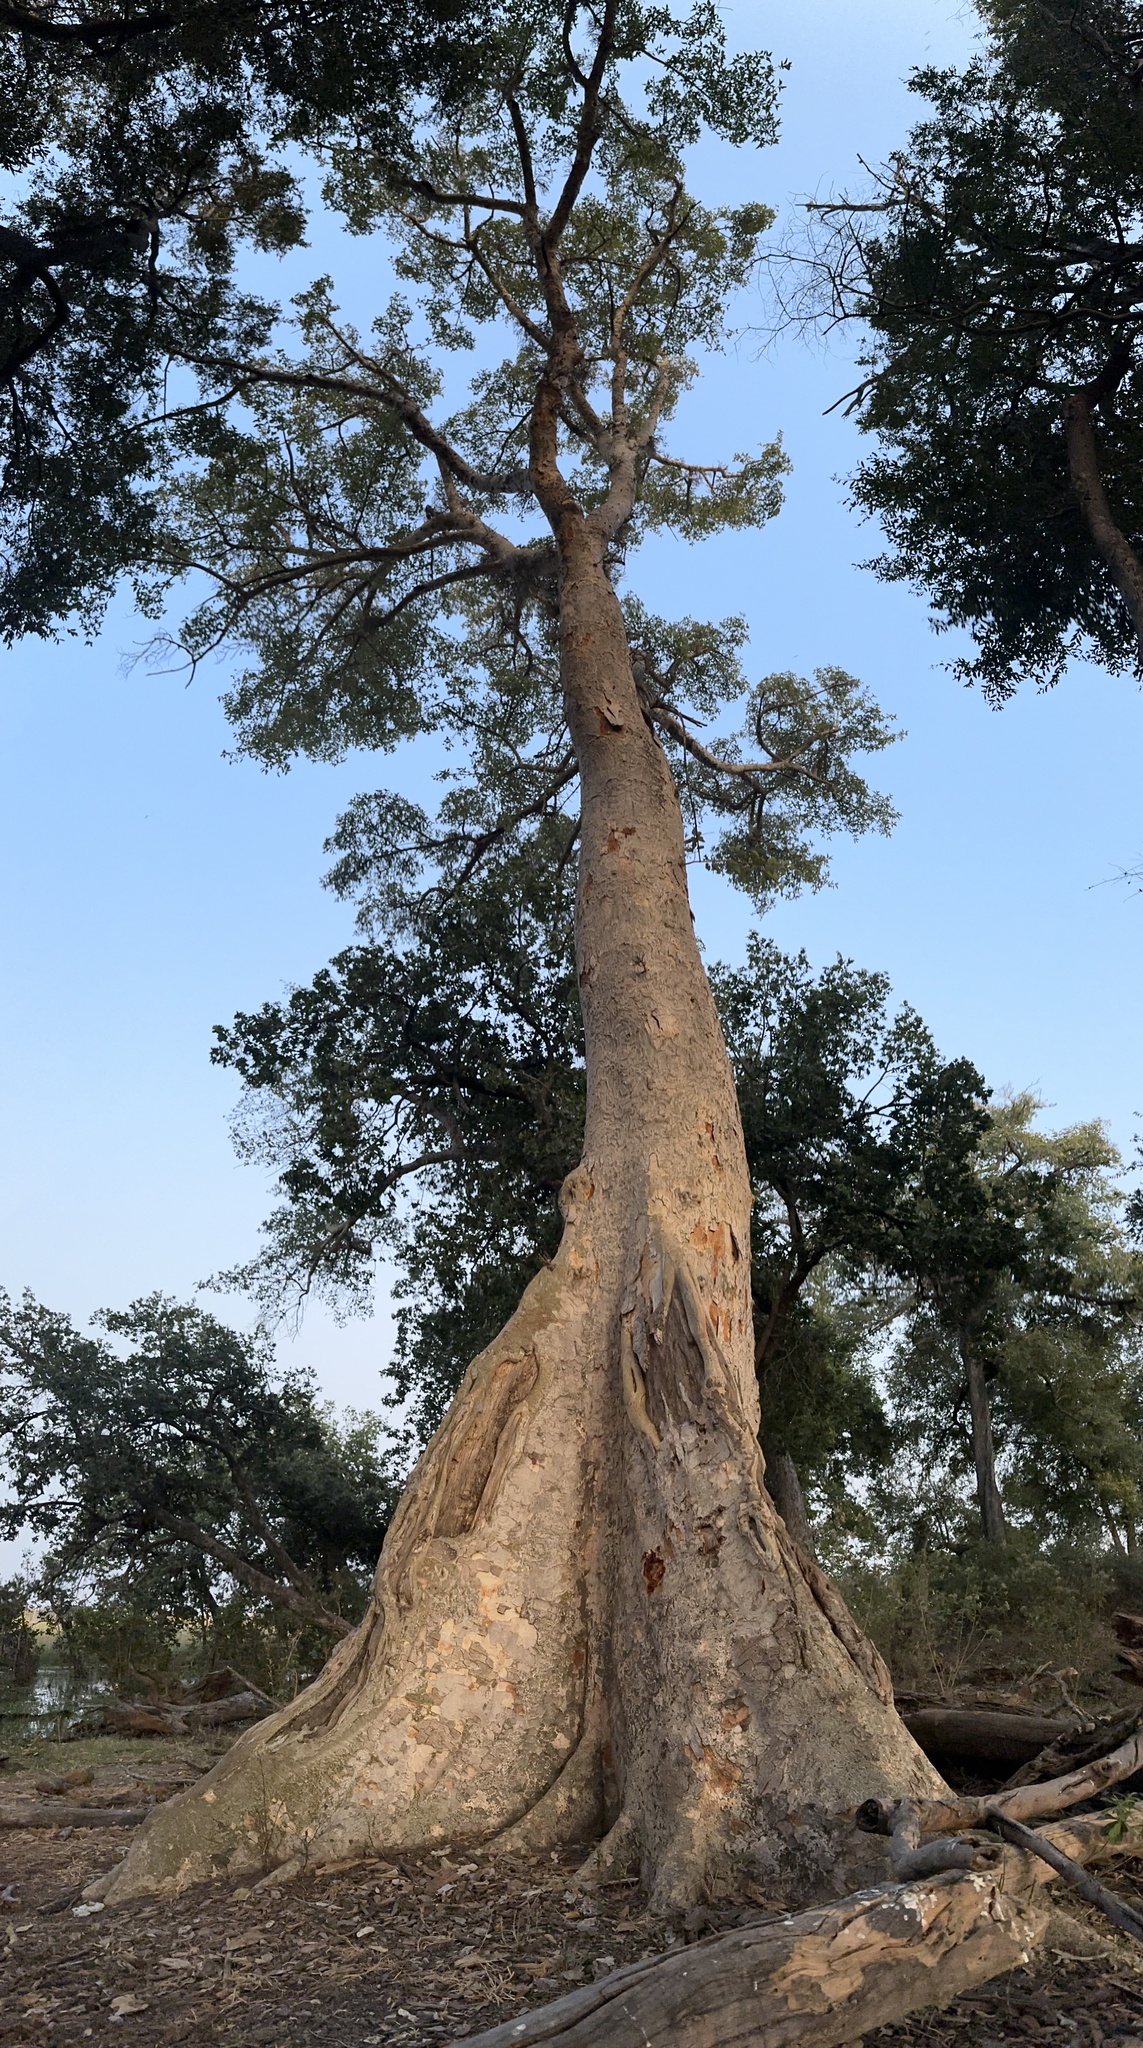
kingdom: Plantae
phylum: Tracheophyta
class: Magnoliopsida
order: Rosales
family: Moraceae
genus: Ficus
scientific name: Ficus sycomorus
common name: Sycomore
